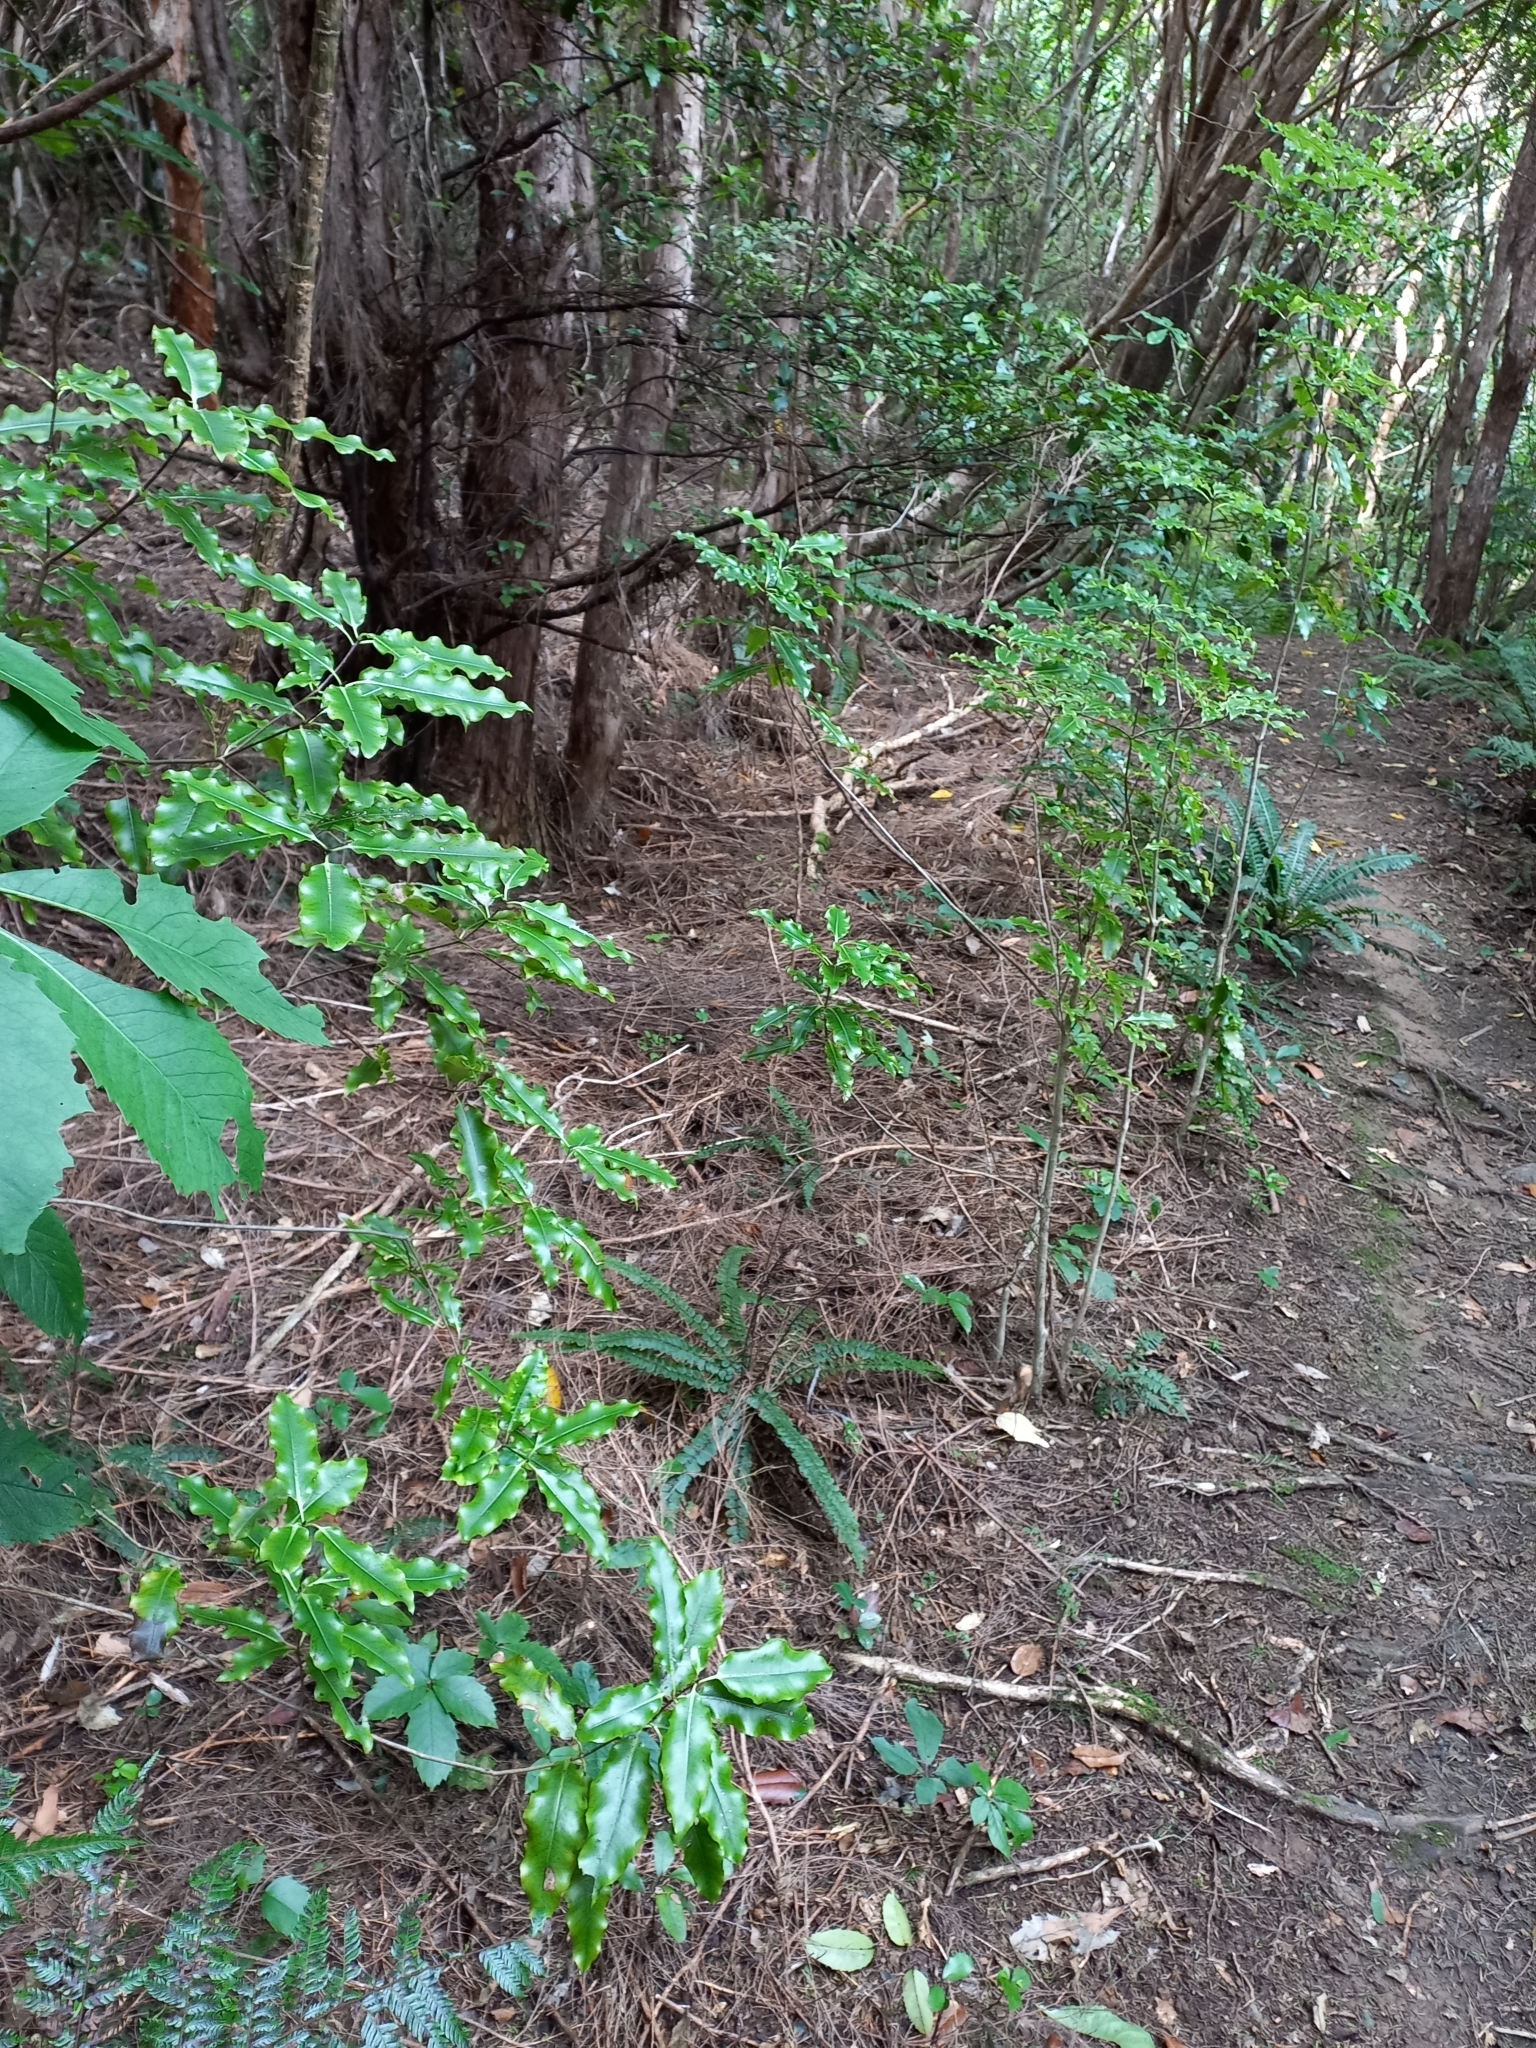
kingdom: Plantae
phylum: Tracheophyta
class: Magnoliopsida
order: Apiales
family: Pittosporaceae
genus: Pittosporum
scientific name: Pittosporum eugenioides
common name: Lemonwood
